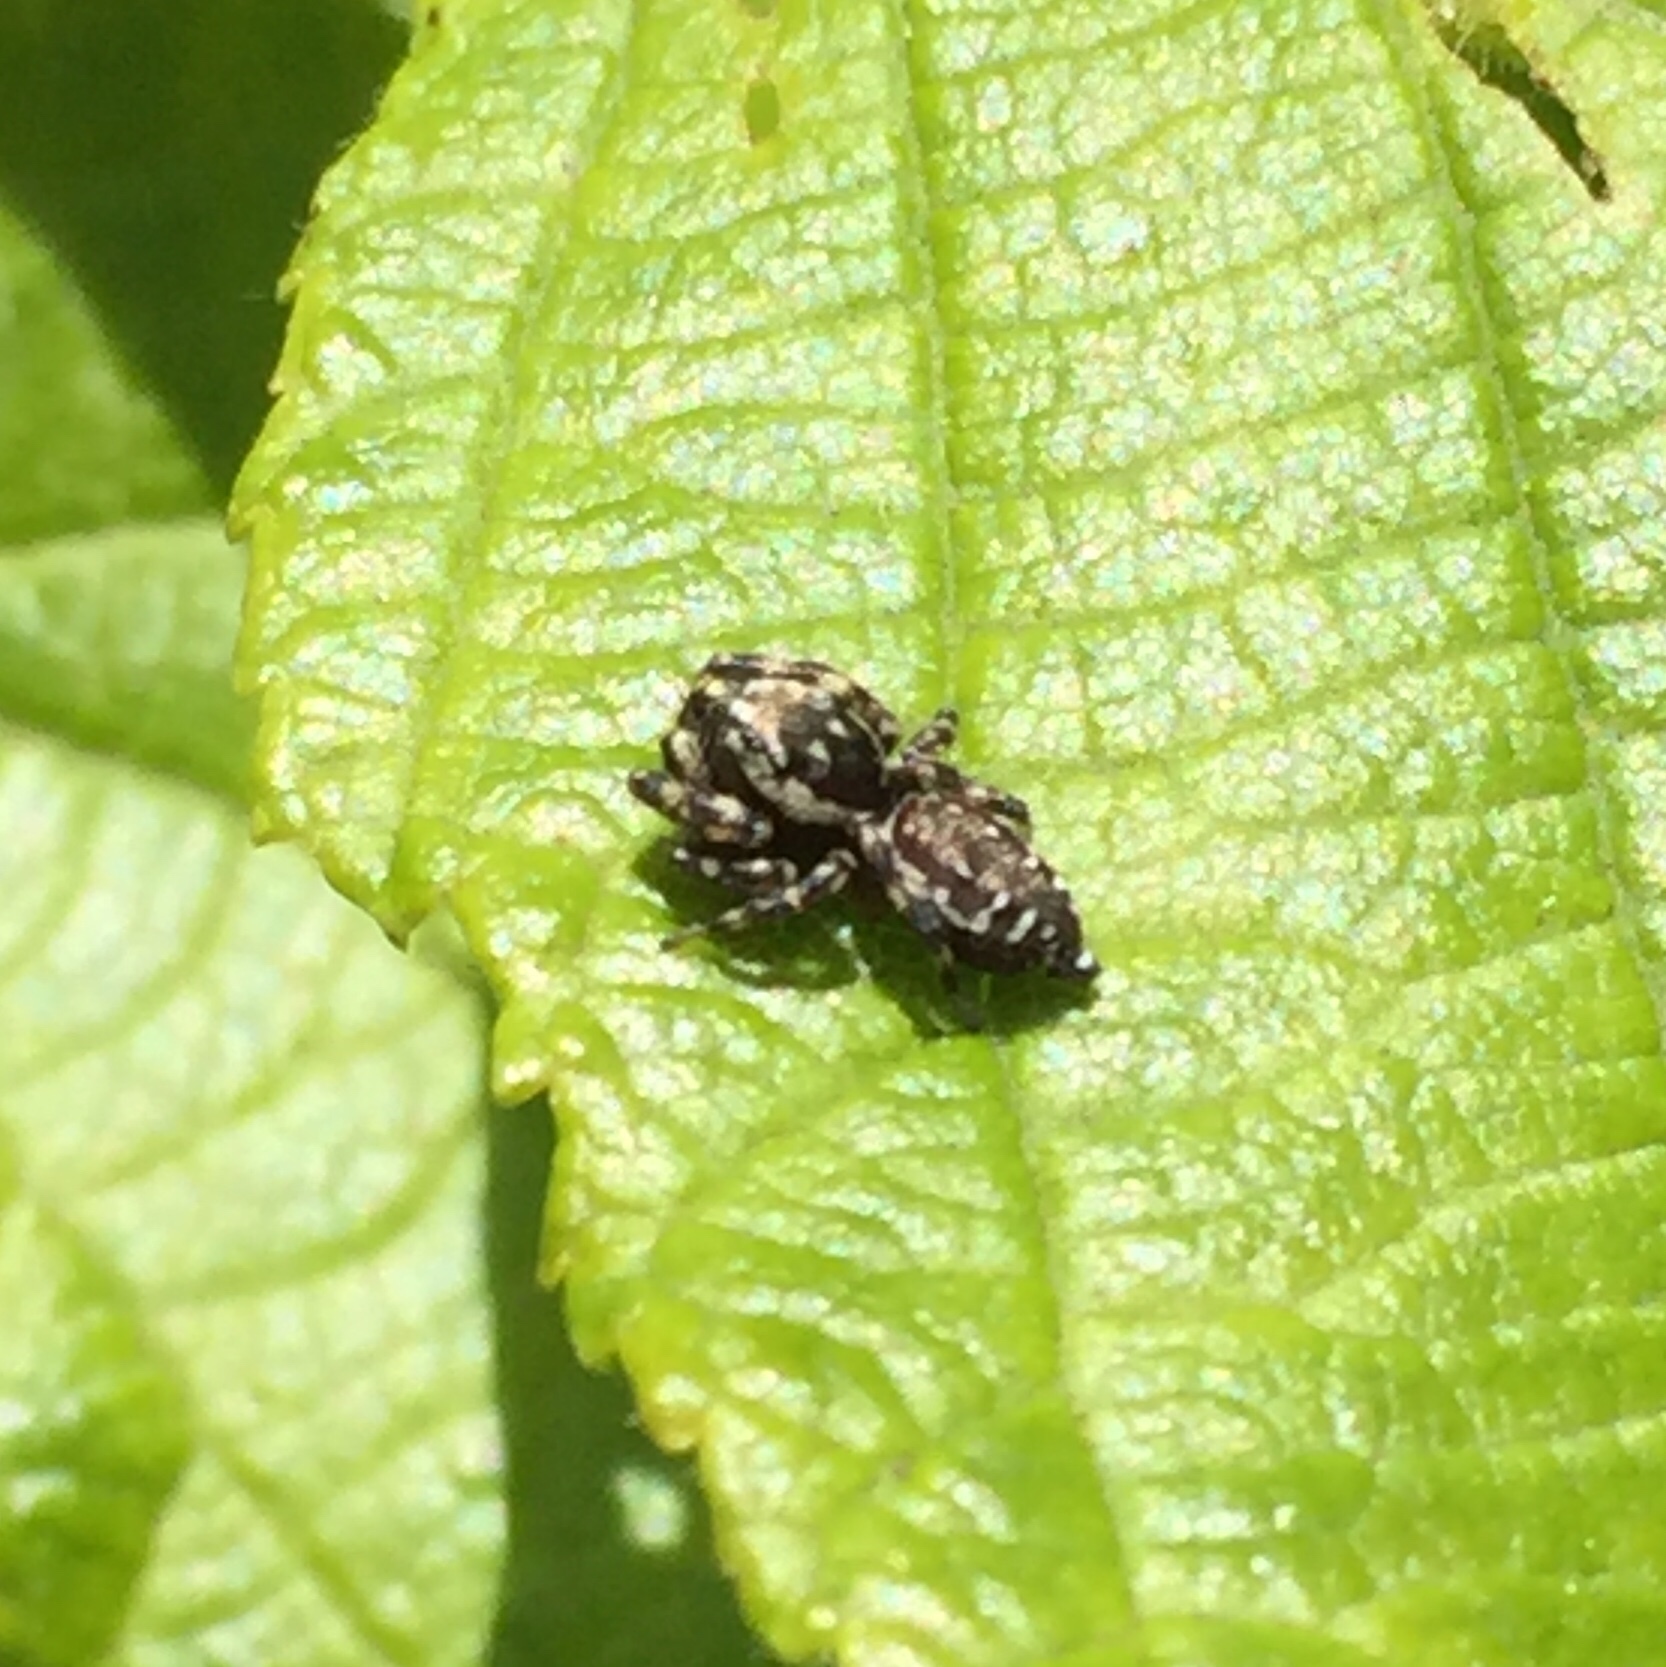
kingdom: Animalia
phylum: Arthropoda
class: Arachnida
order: Araneae
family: Salticidae
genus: Pelegrina
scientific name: Pelegrina galathea
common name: Jumping spiders
